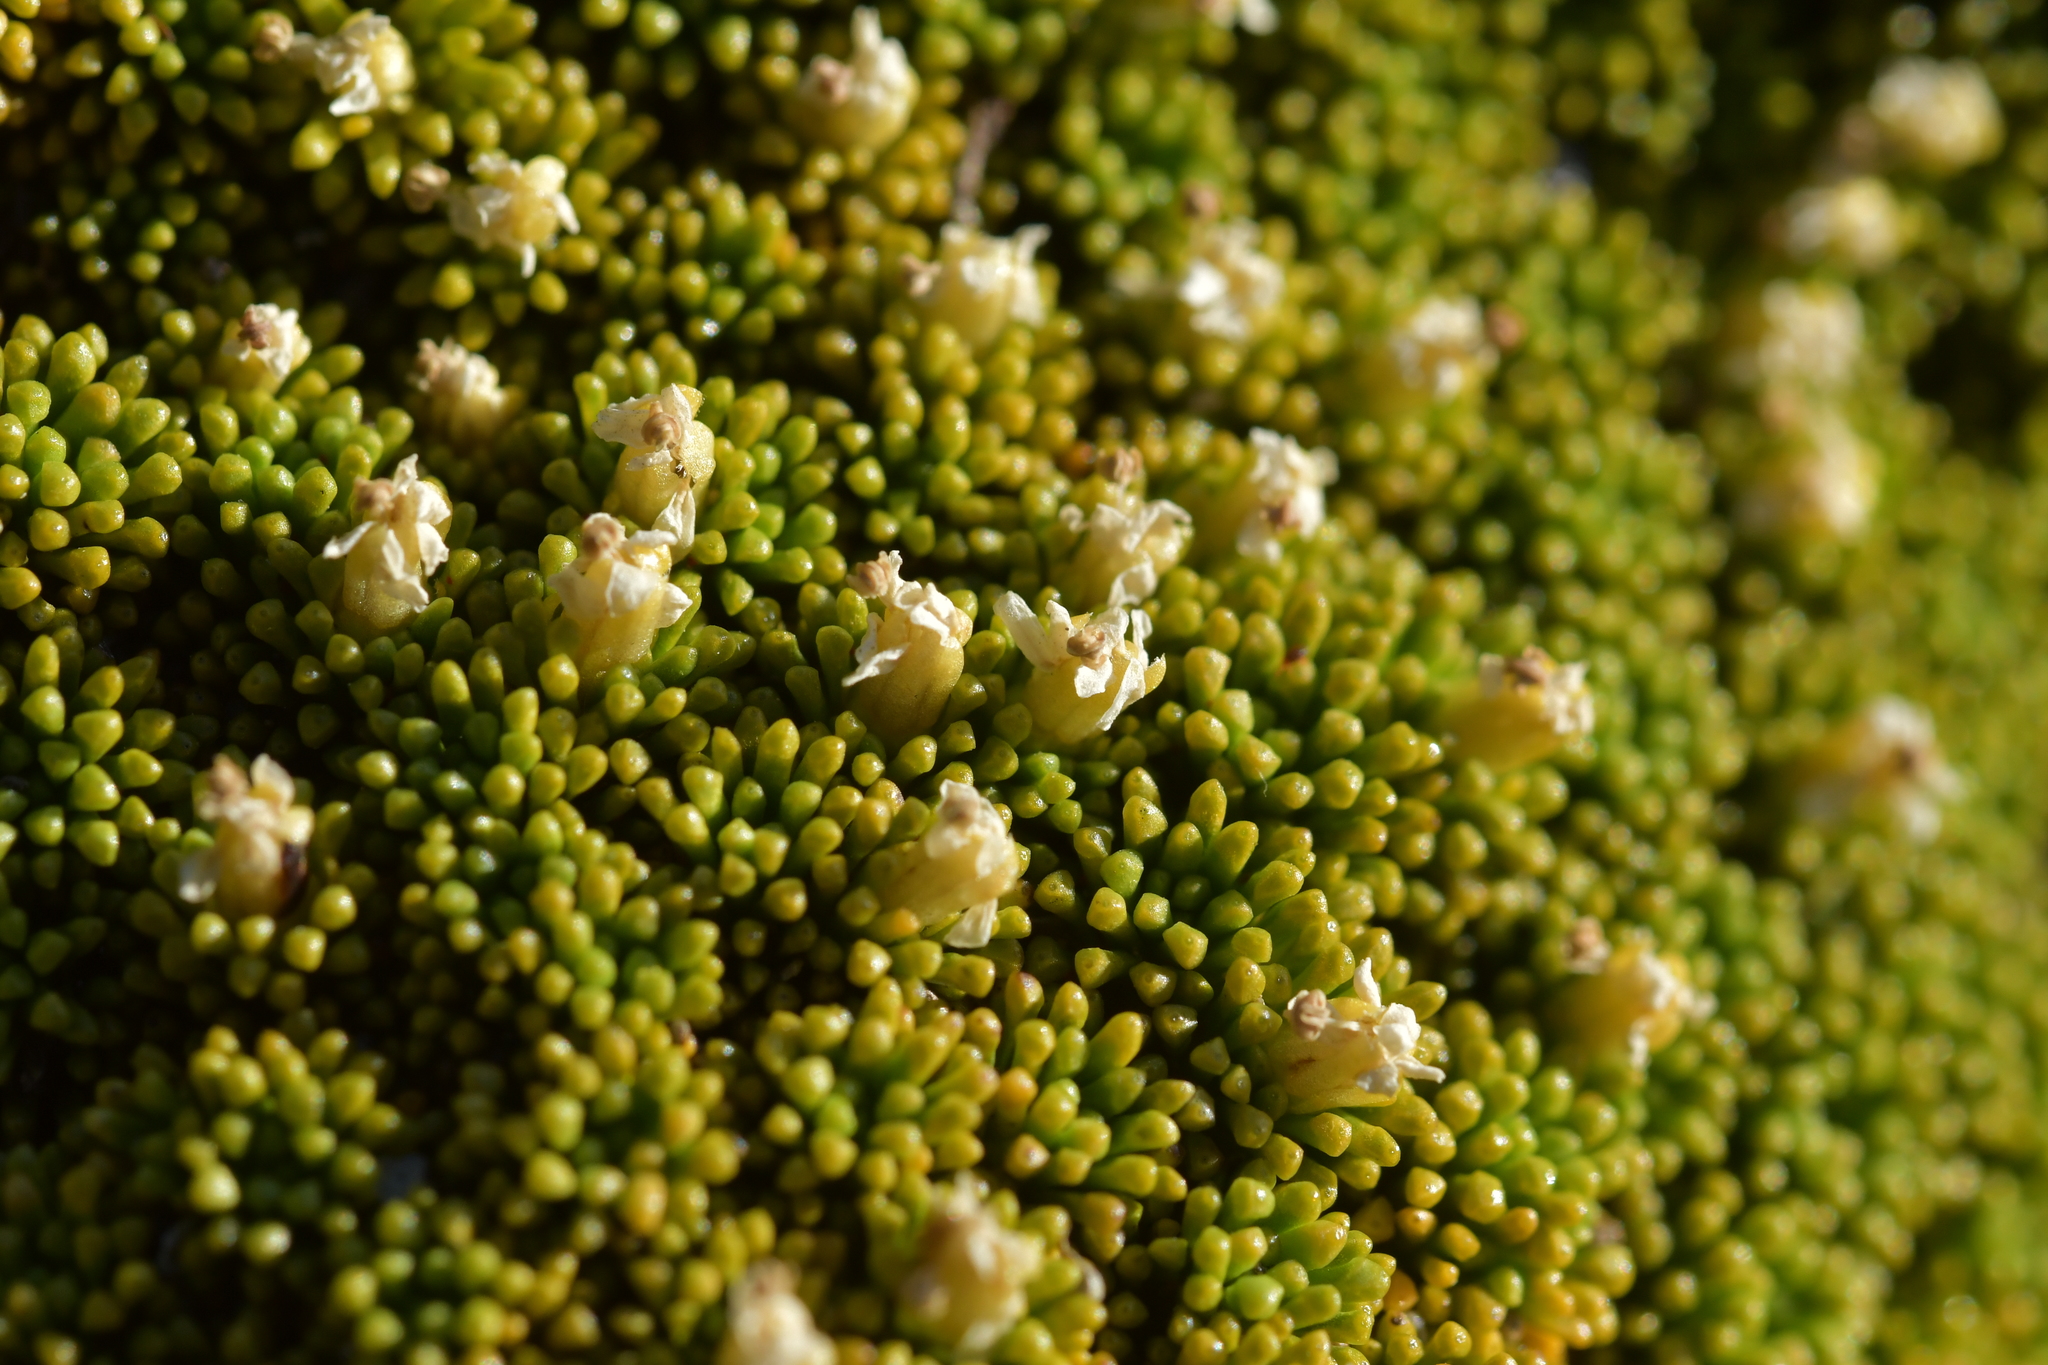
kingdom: Plantae
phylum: Tracheophyta
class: Magnoliopsida
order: Asterales
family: Stylidiaceae
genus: Phyllachne
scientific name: Phyllachne colensoi
